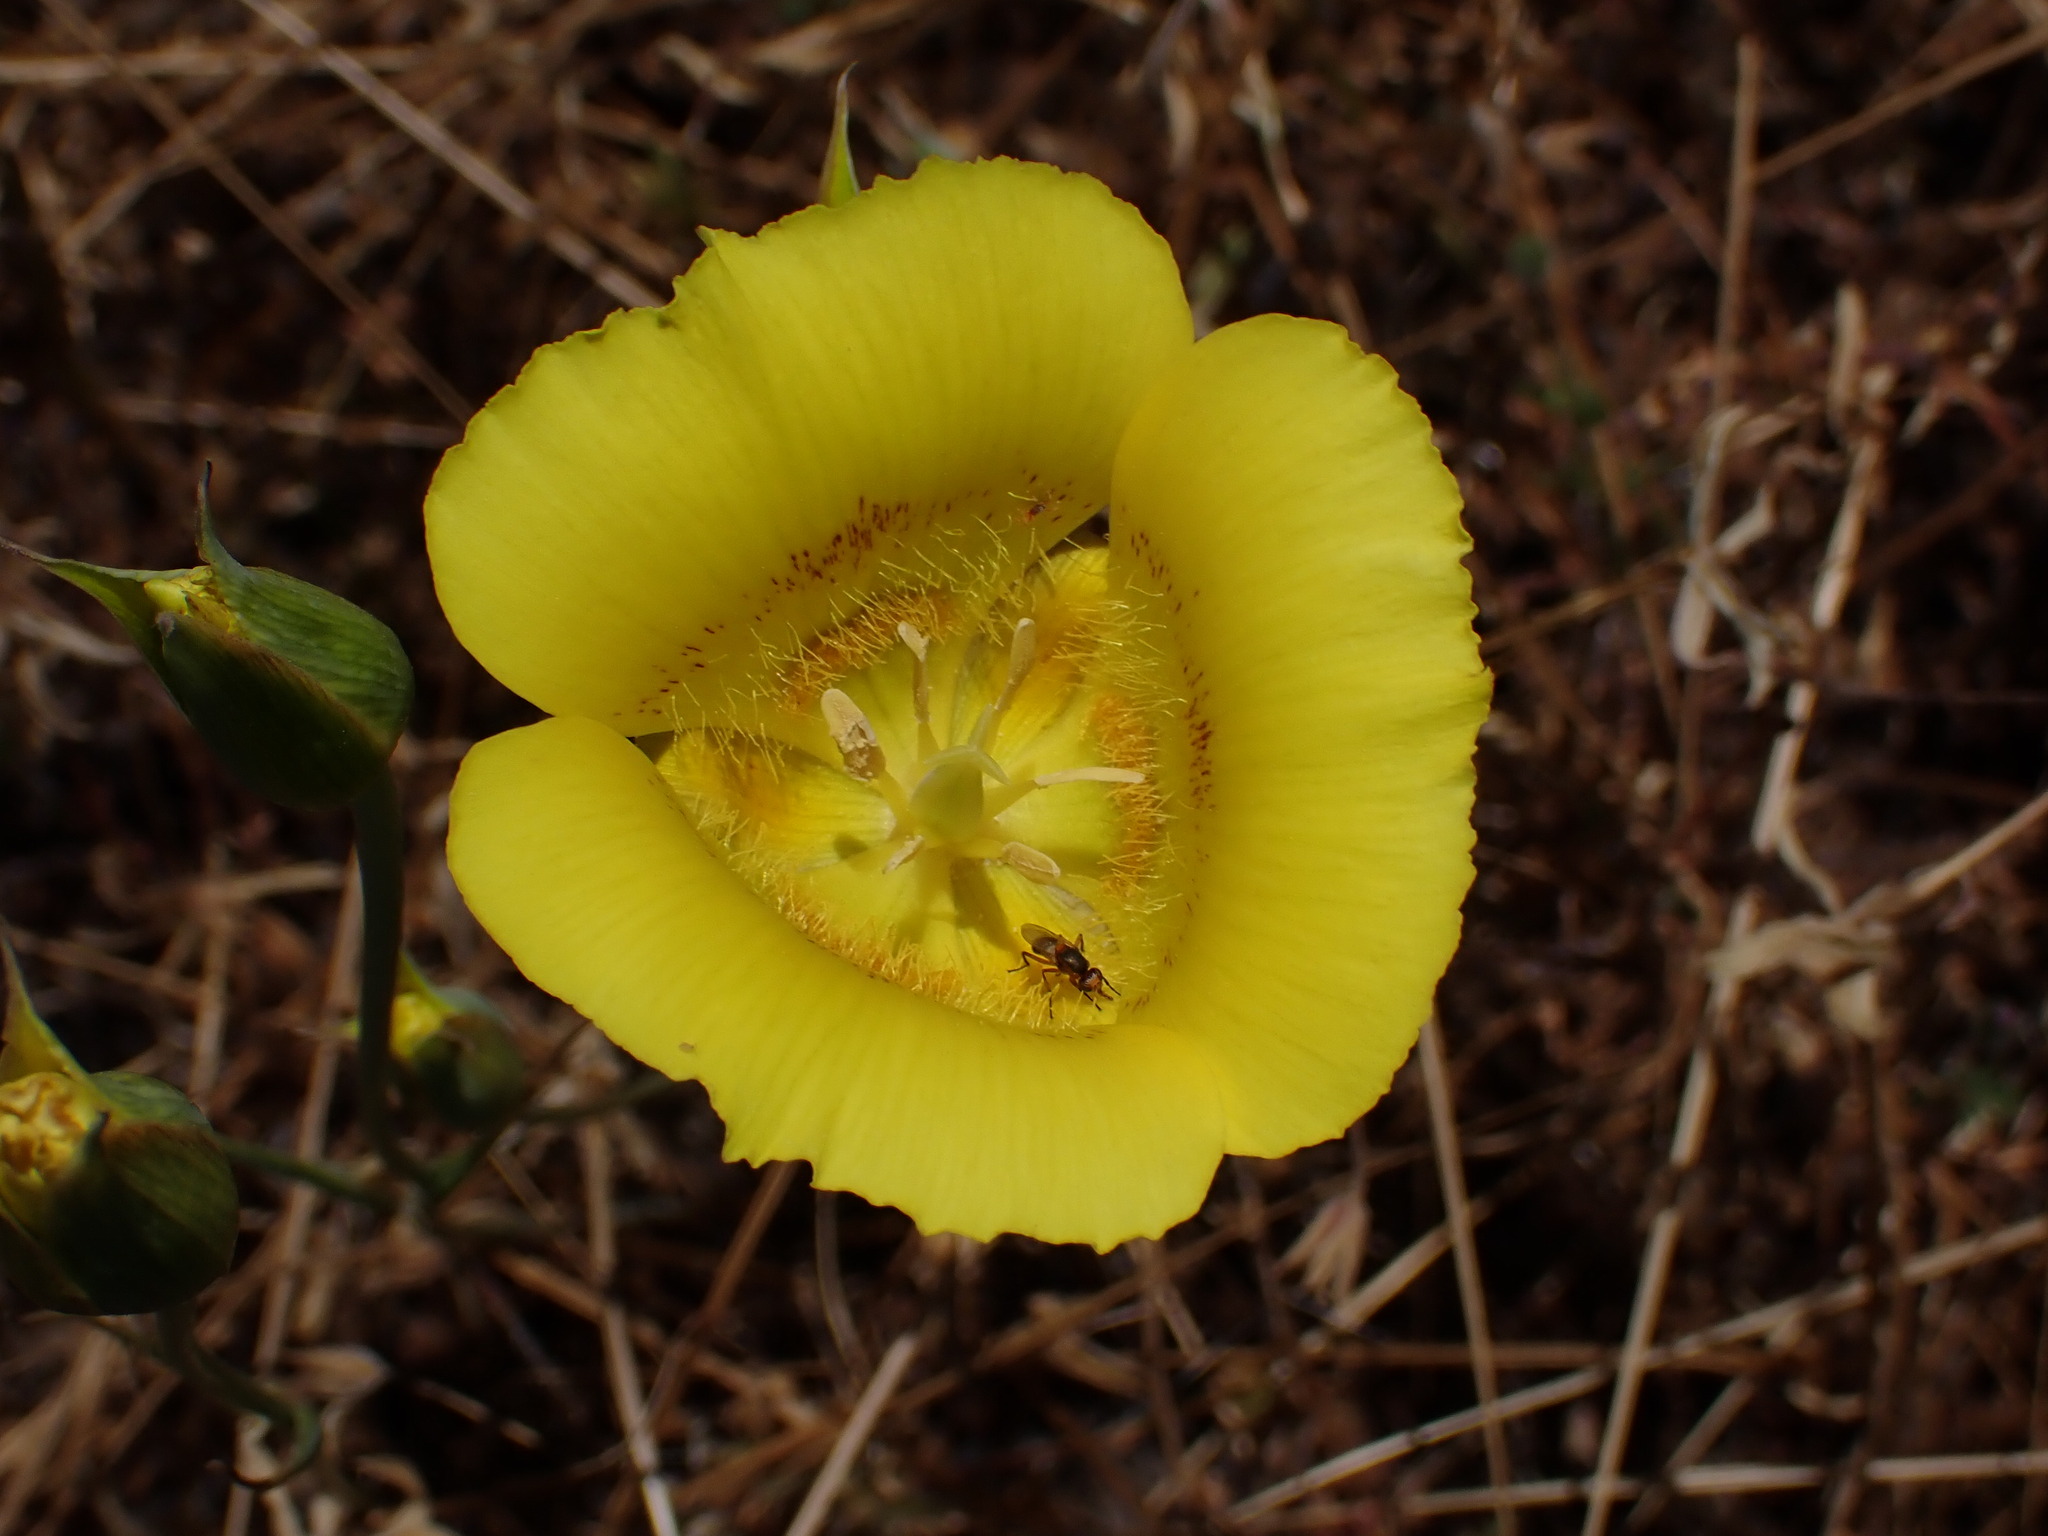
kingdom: Plantae
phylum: Tracheophyta
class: Liliopsida
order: Liliales
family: Liliaceae
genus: Calochortus
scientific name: Calochortus luteus
